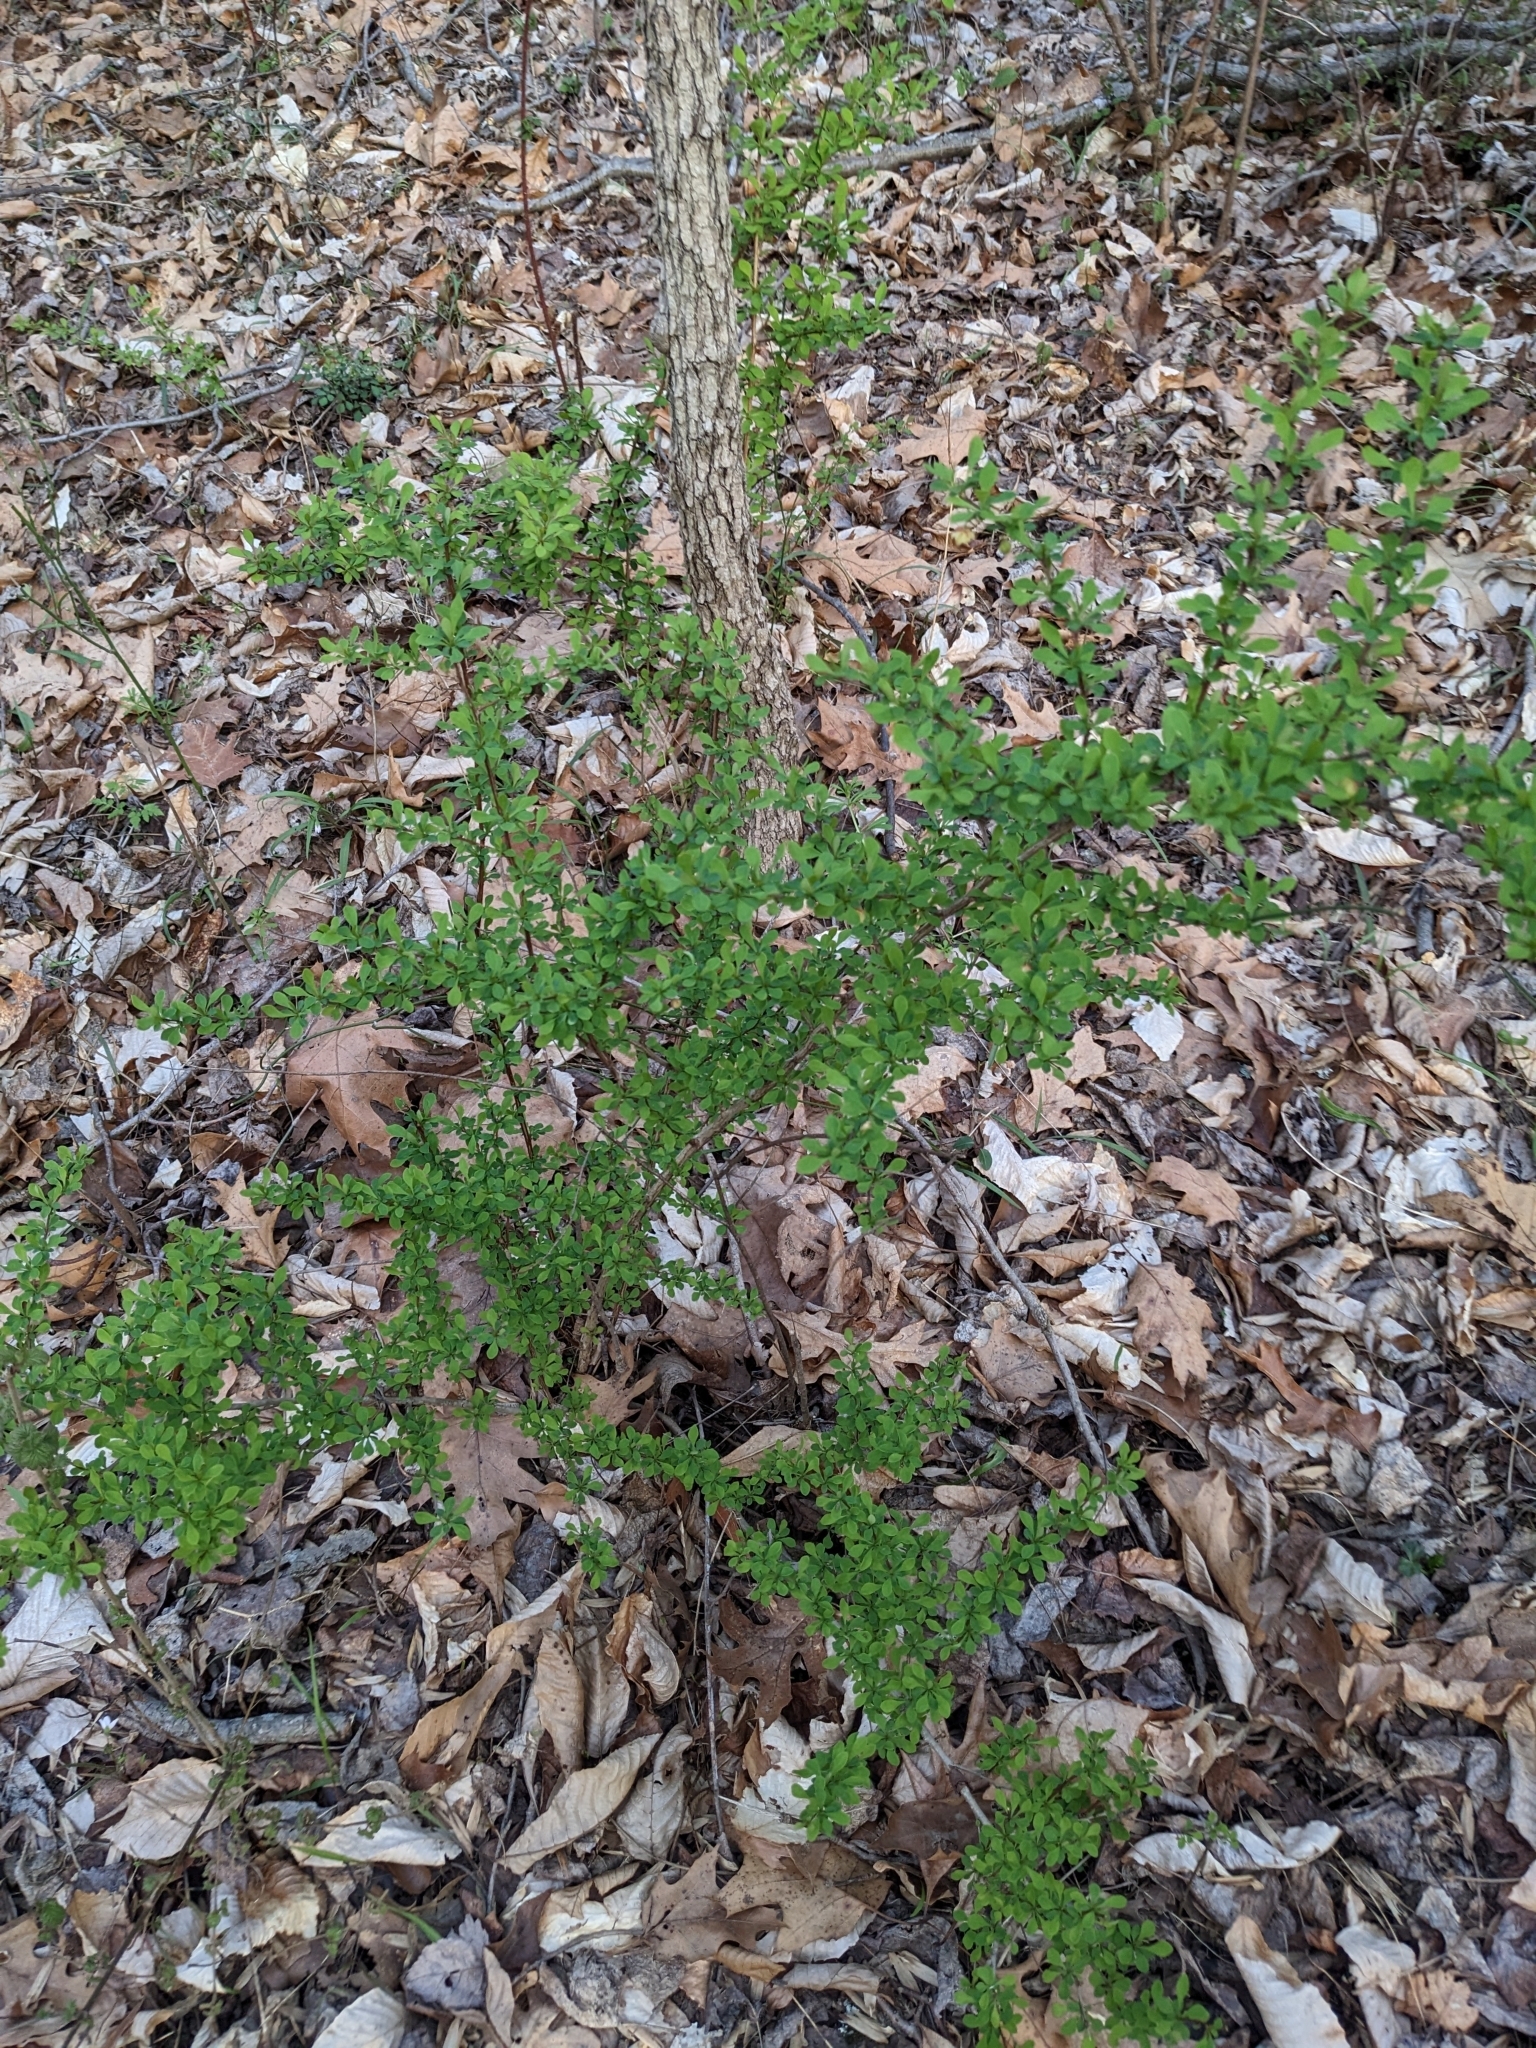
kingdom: Plantae
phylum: Tracheophyta
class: Magnoliopsida
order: Ranunculales
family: Berberidaceae
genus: Berberis
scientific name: Berberis thunbergii
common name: Japanese barberry
